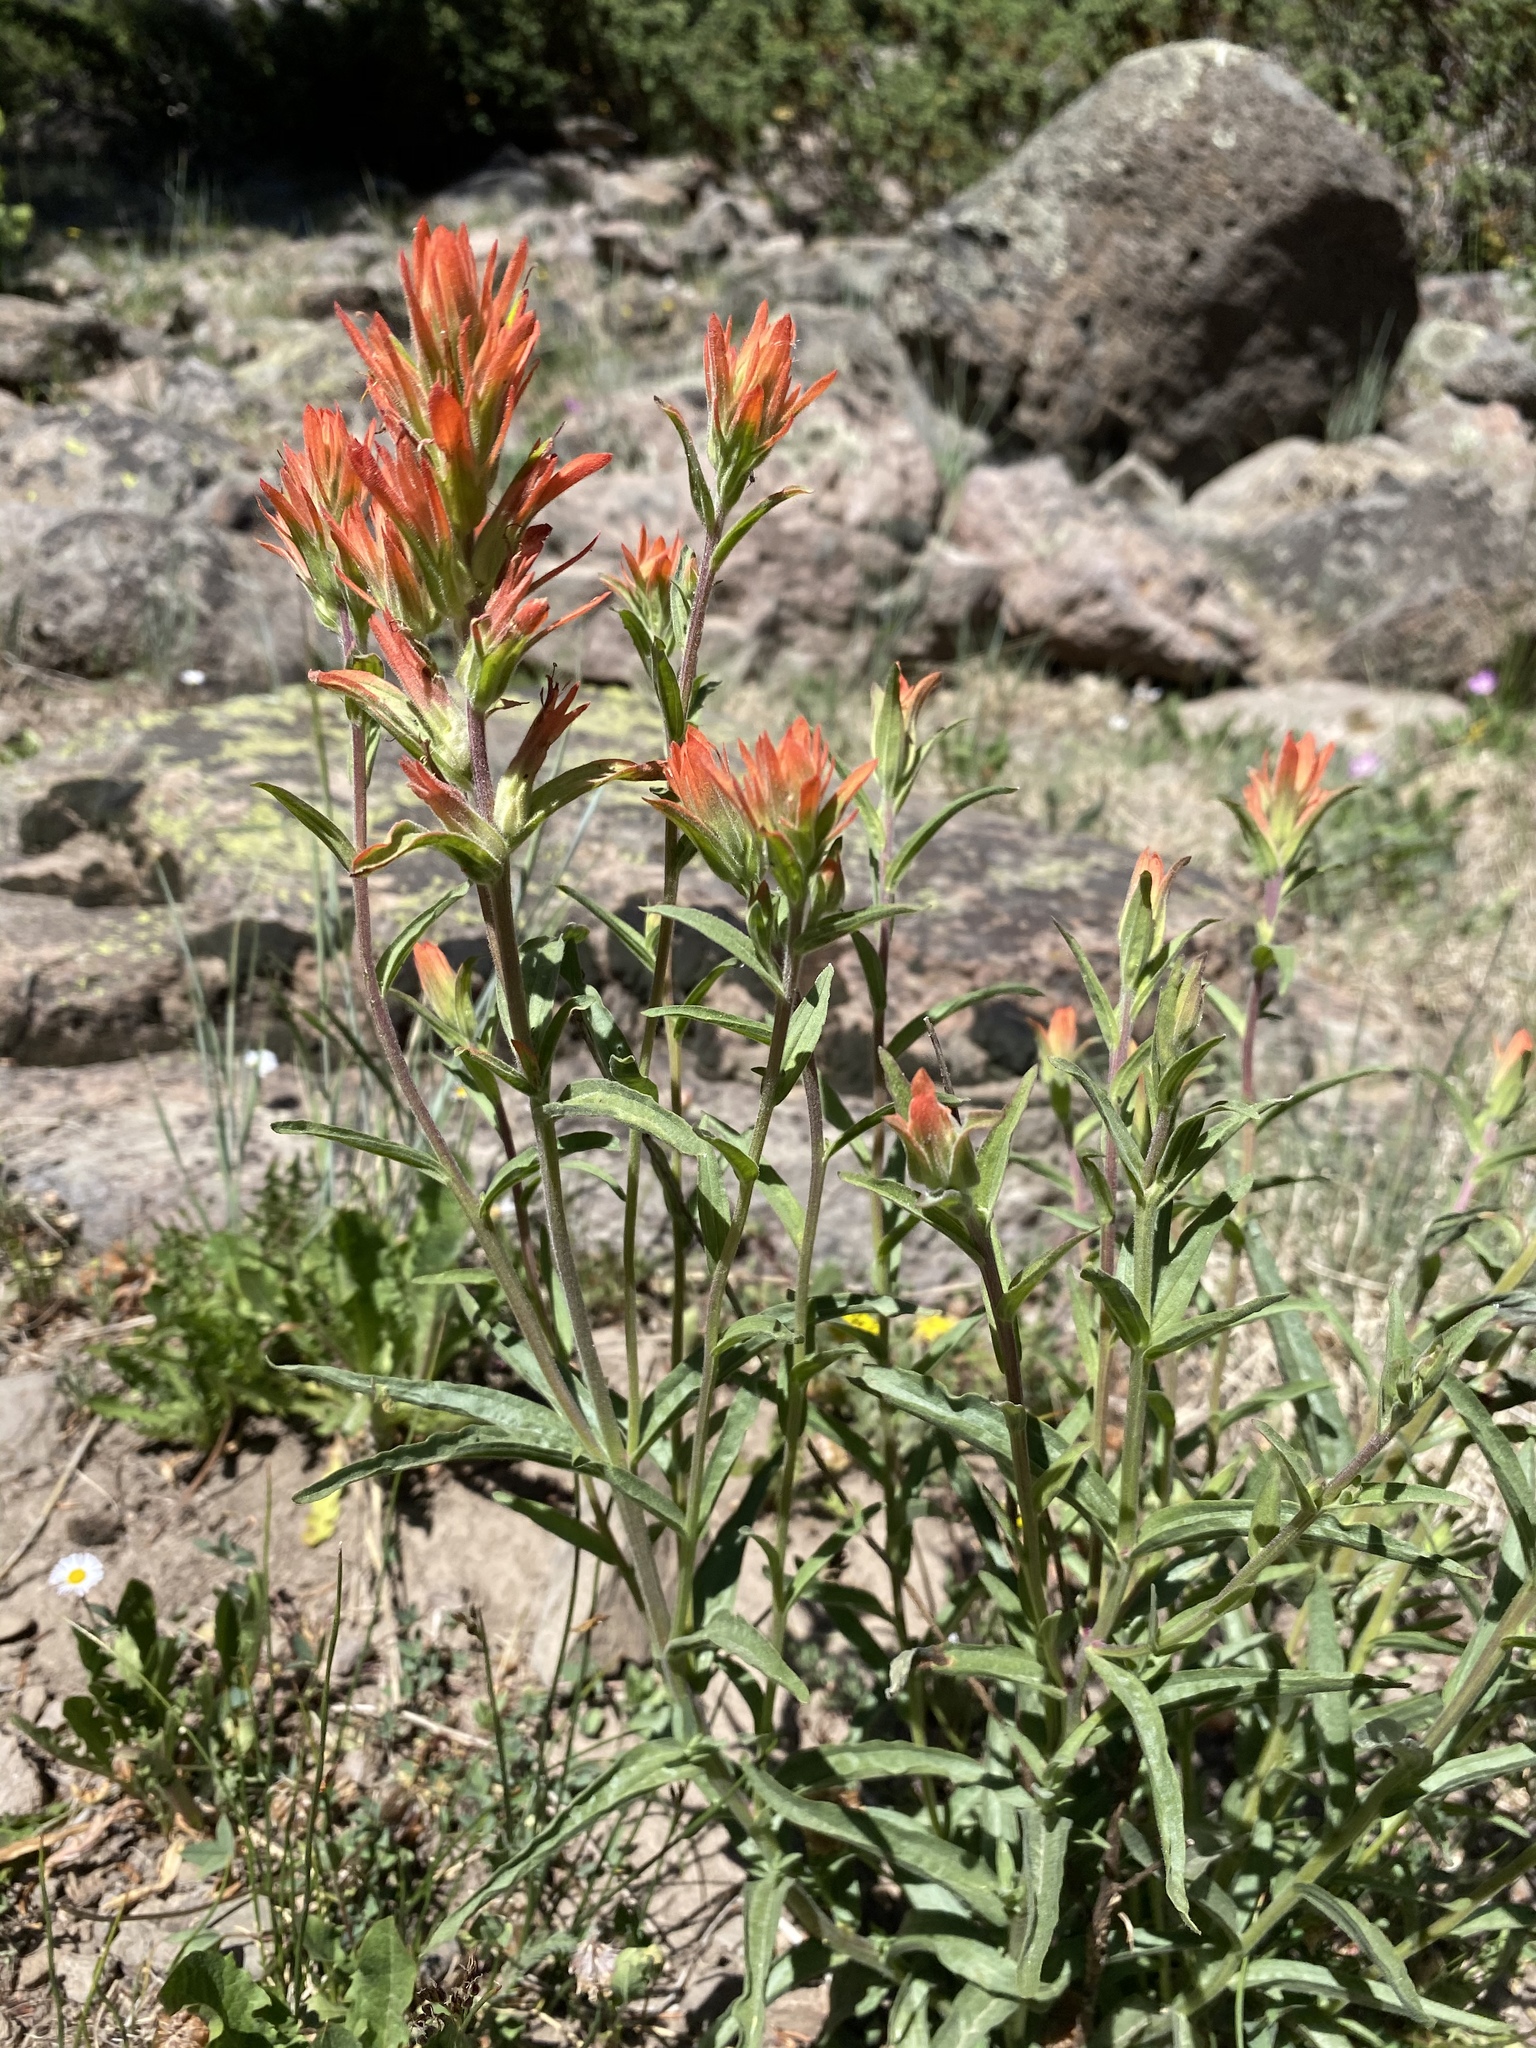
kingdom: Plantae
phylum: Tracheophyta
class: Magnoliopsida
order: Lamiales
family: Orobanchaceae
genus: Castilleja
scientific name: Castilleja miniata
